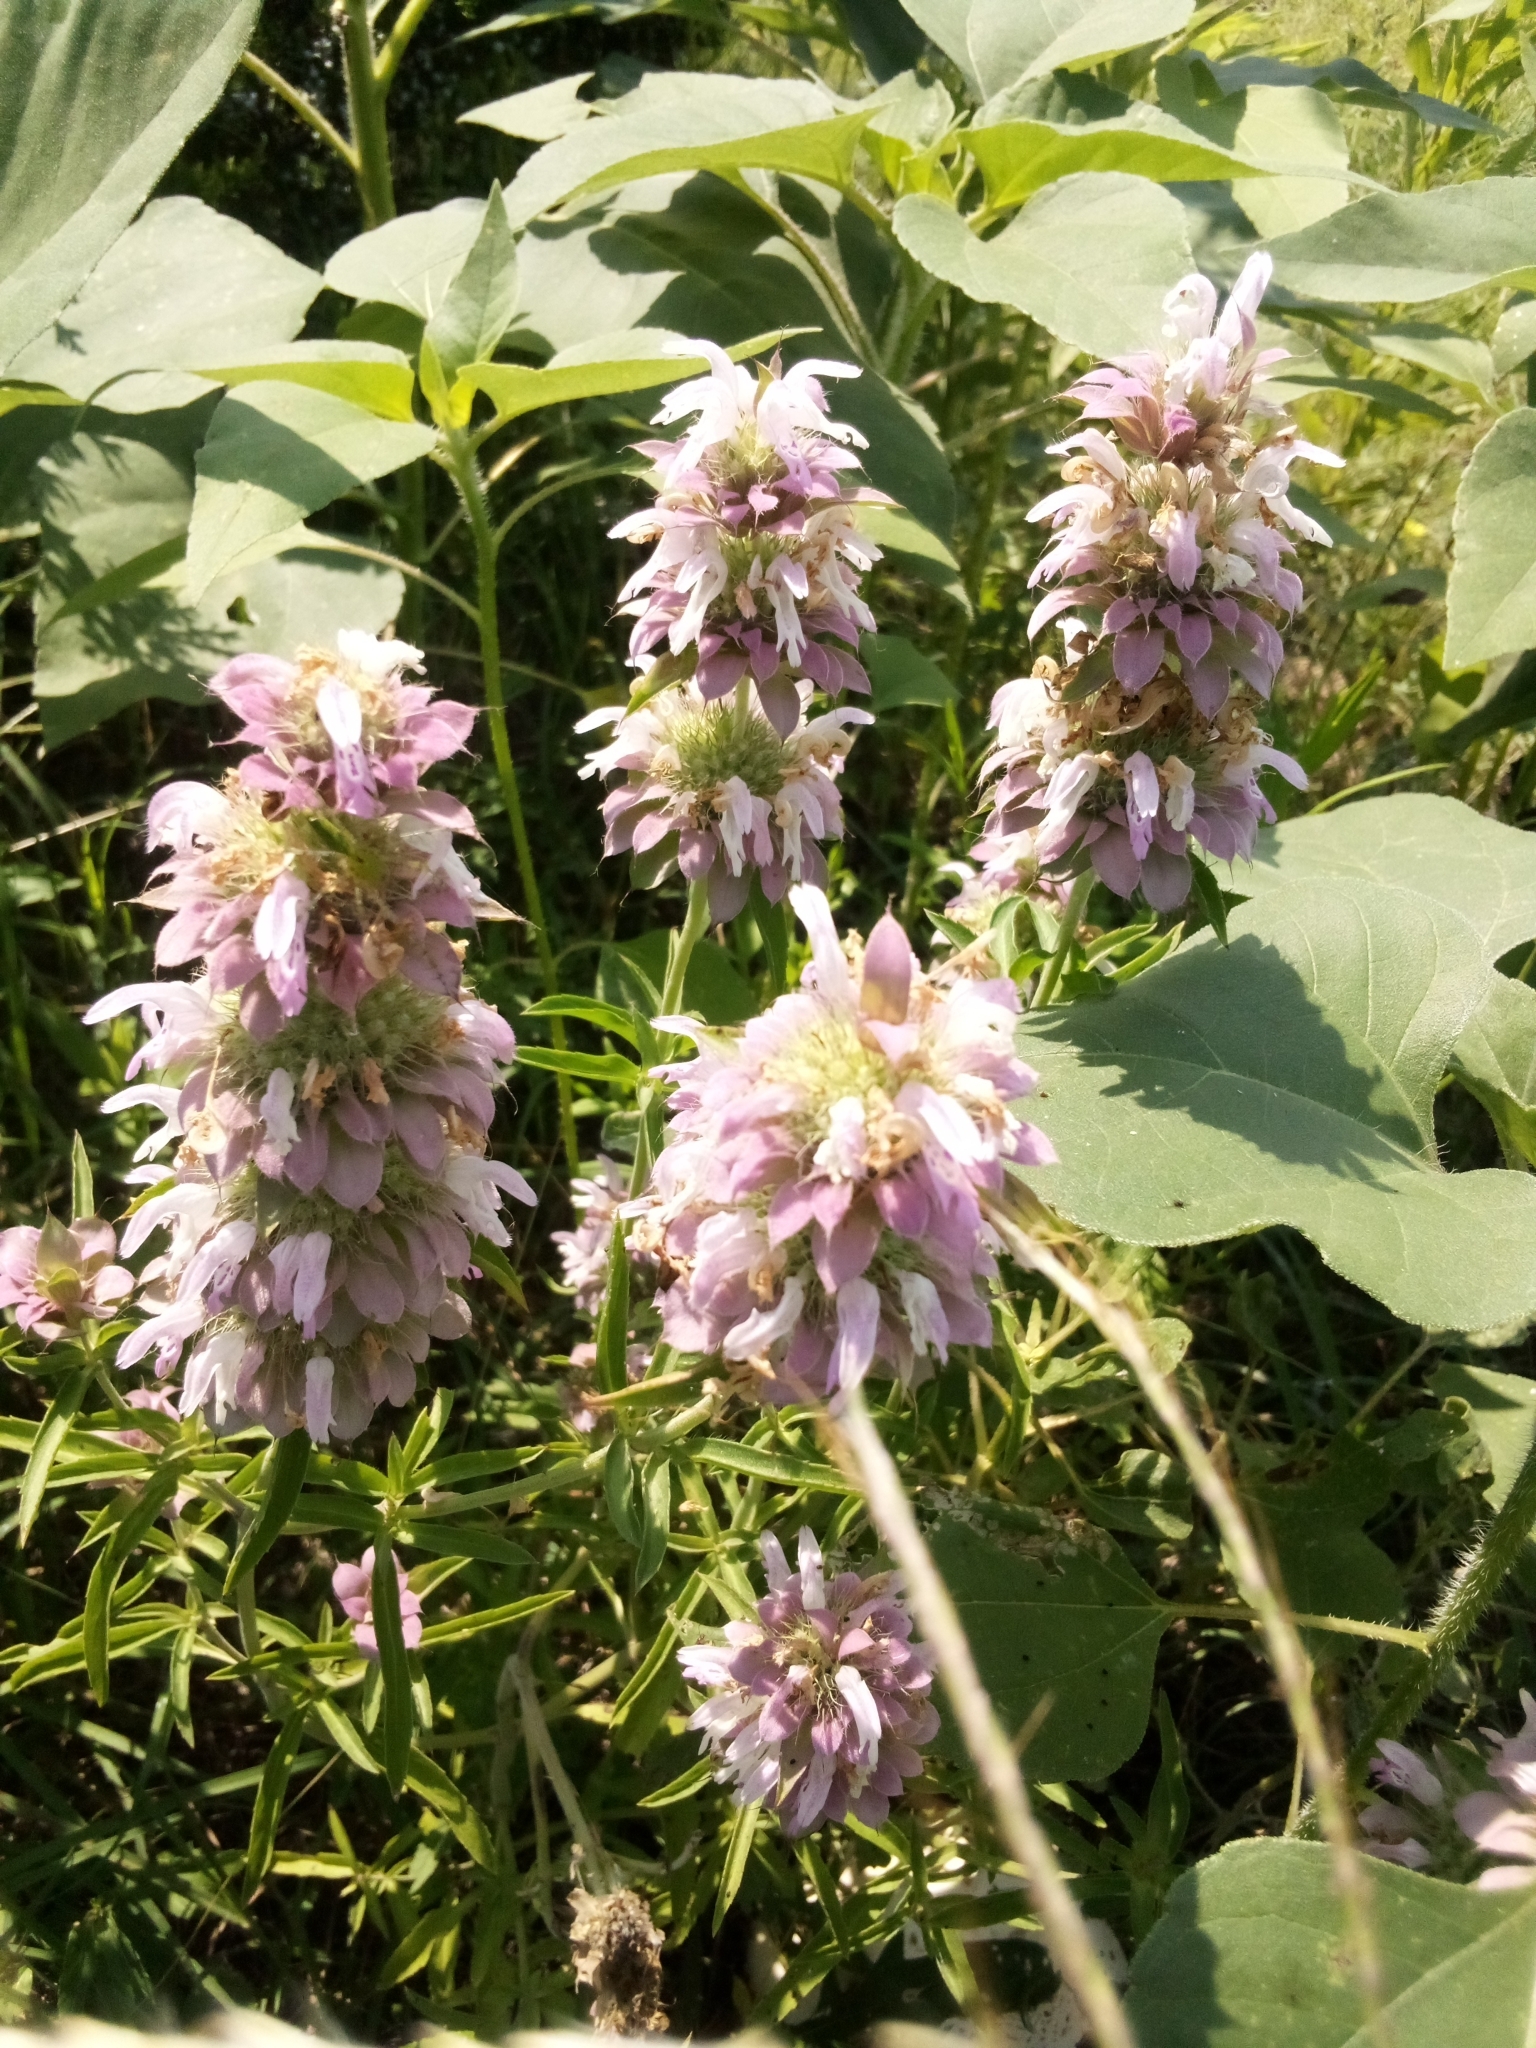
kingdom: Plantae
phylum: Tracheophyta
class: Magnoliopsida
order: Lamiales
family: Lamiaceae
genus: Monarda
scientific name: Monarda citriodora
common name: Lemon beebalm
